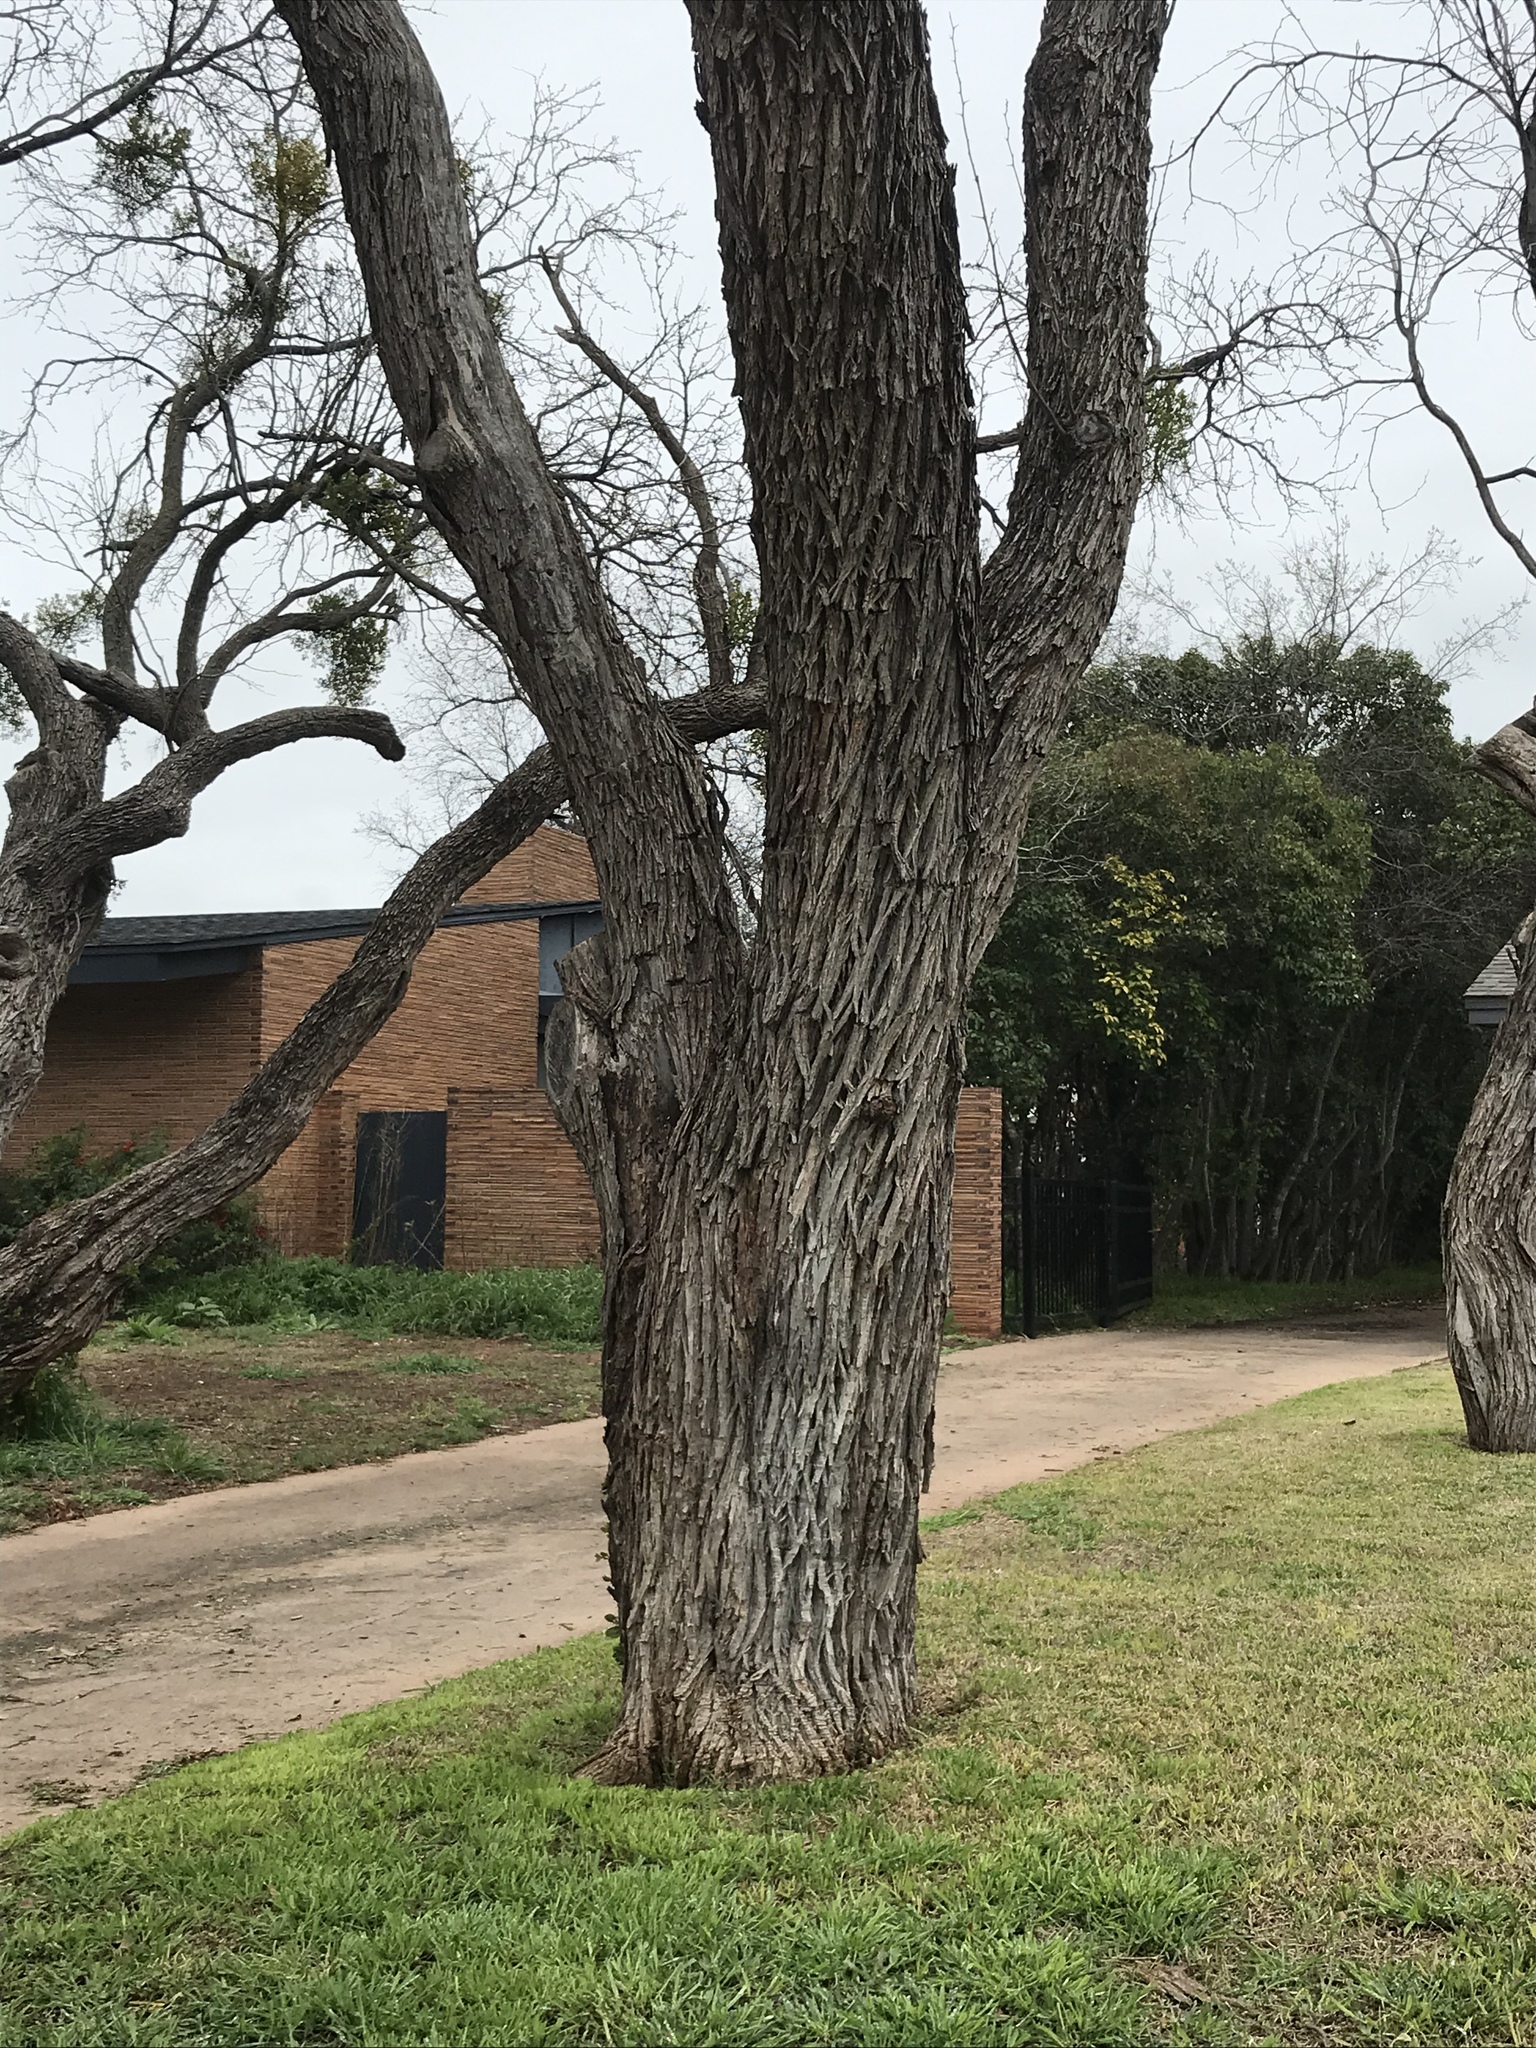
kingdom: Plantae
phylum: Tracheophyta
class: Magnoliopsida
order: Fabales
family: Fabaceae
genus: Prosopis
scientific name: Prosopis glandulosa
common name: Honey mesquite
